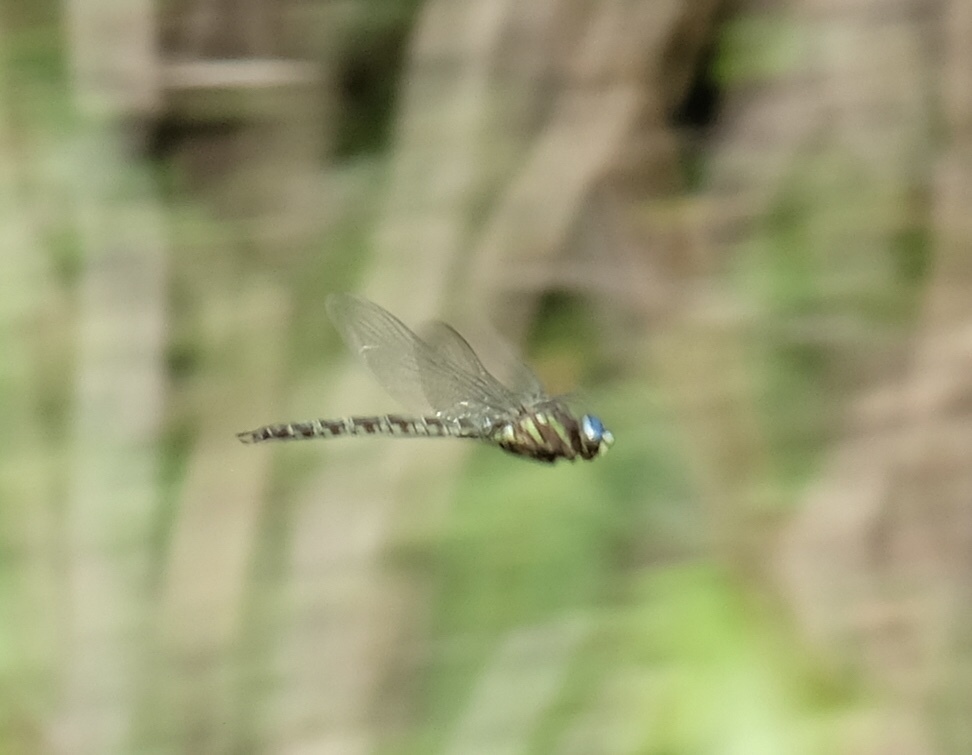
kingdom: Animalia
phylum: Arthropoda
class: Insecta
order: Odonata
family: Aeshnidae
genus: Nasiaeschna
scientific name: Nasiaeschna pentacantha
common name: Cyrano darner
